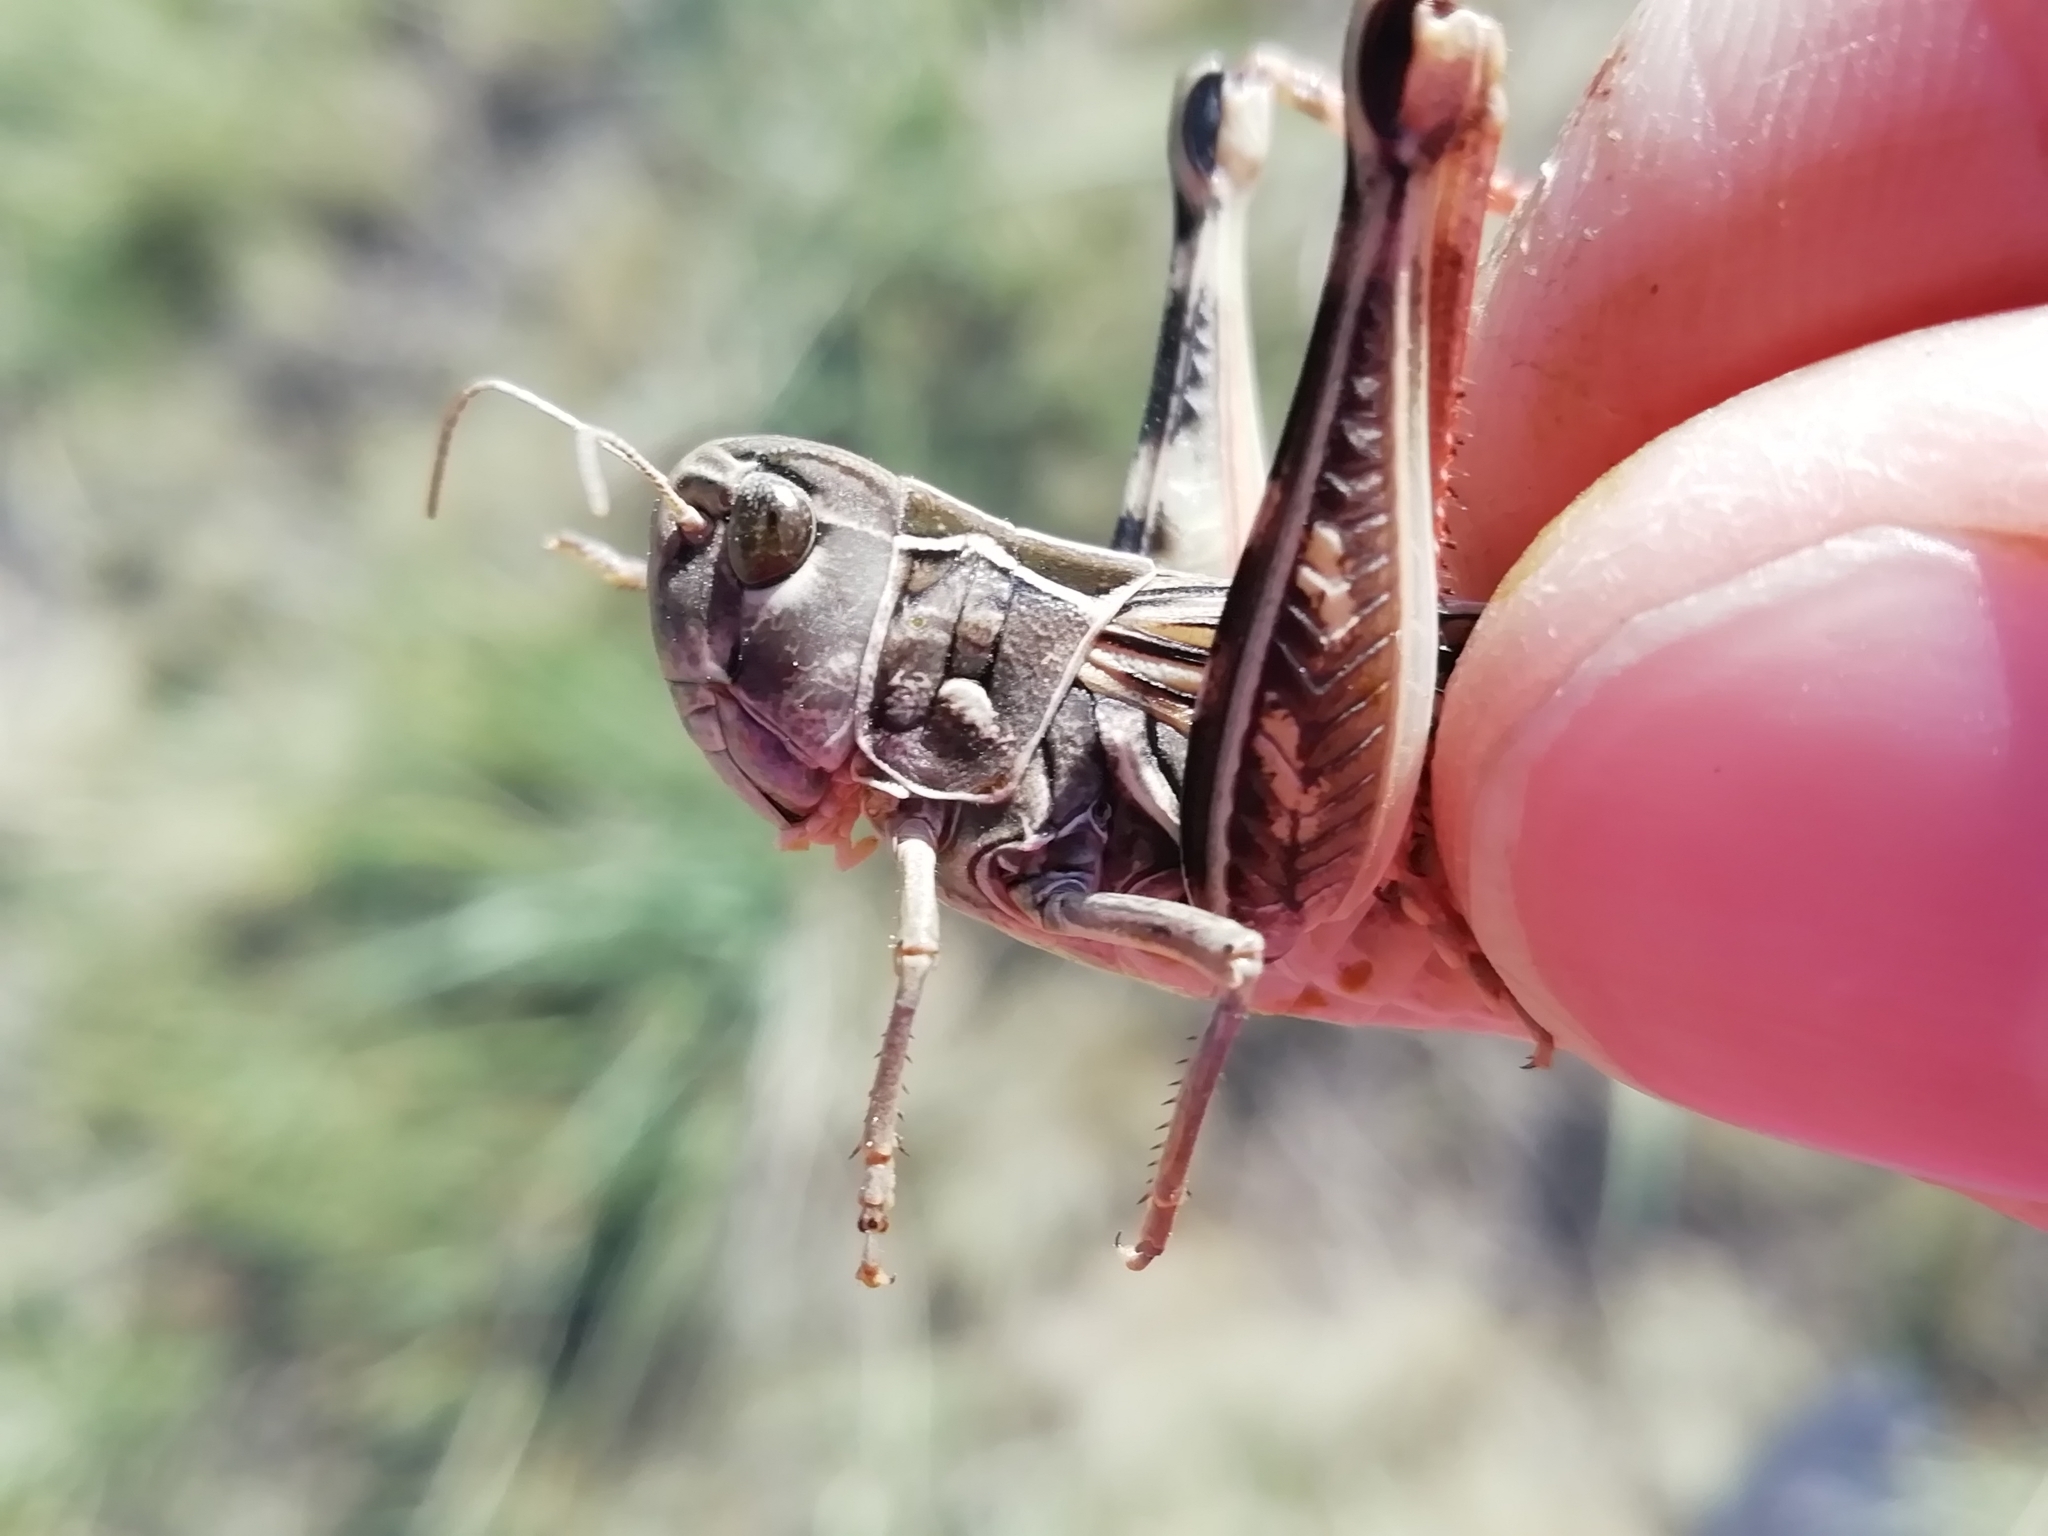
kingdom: Animalia
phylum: Arthropoda
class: Insecta
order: Orthoptera
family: Acrididae
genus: Arcyptera
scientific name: Arcyptera microptera
